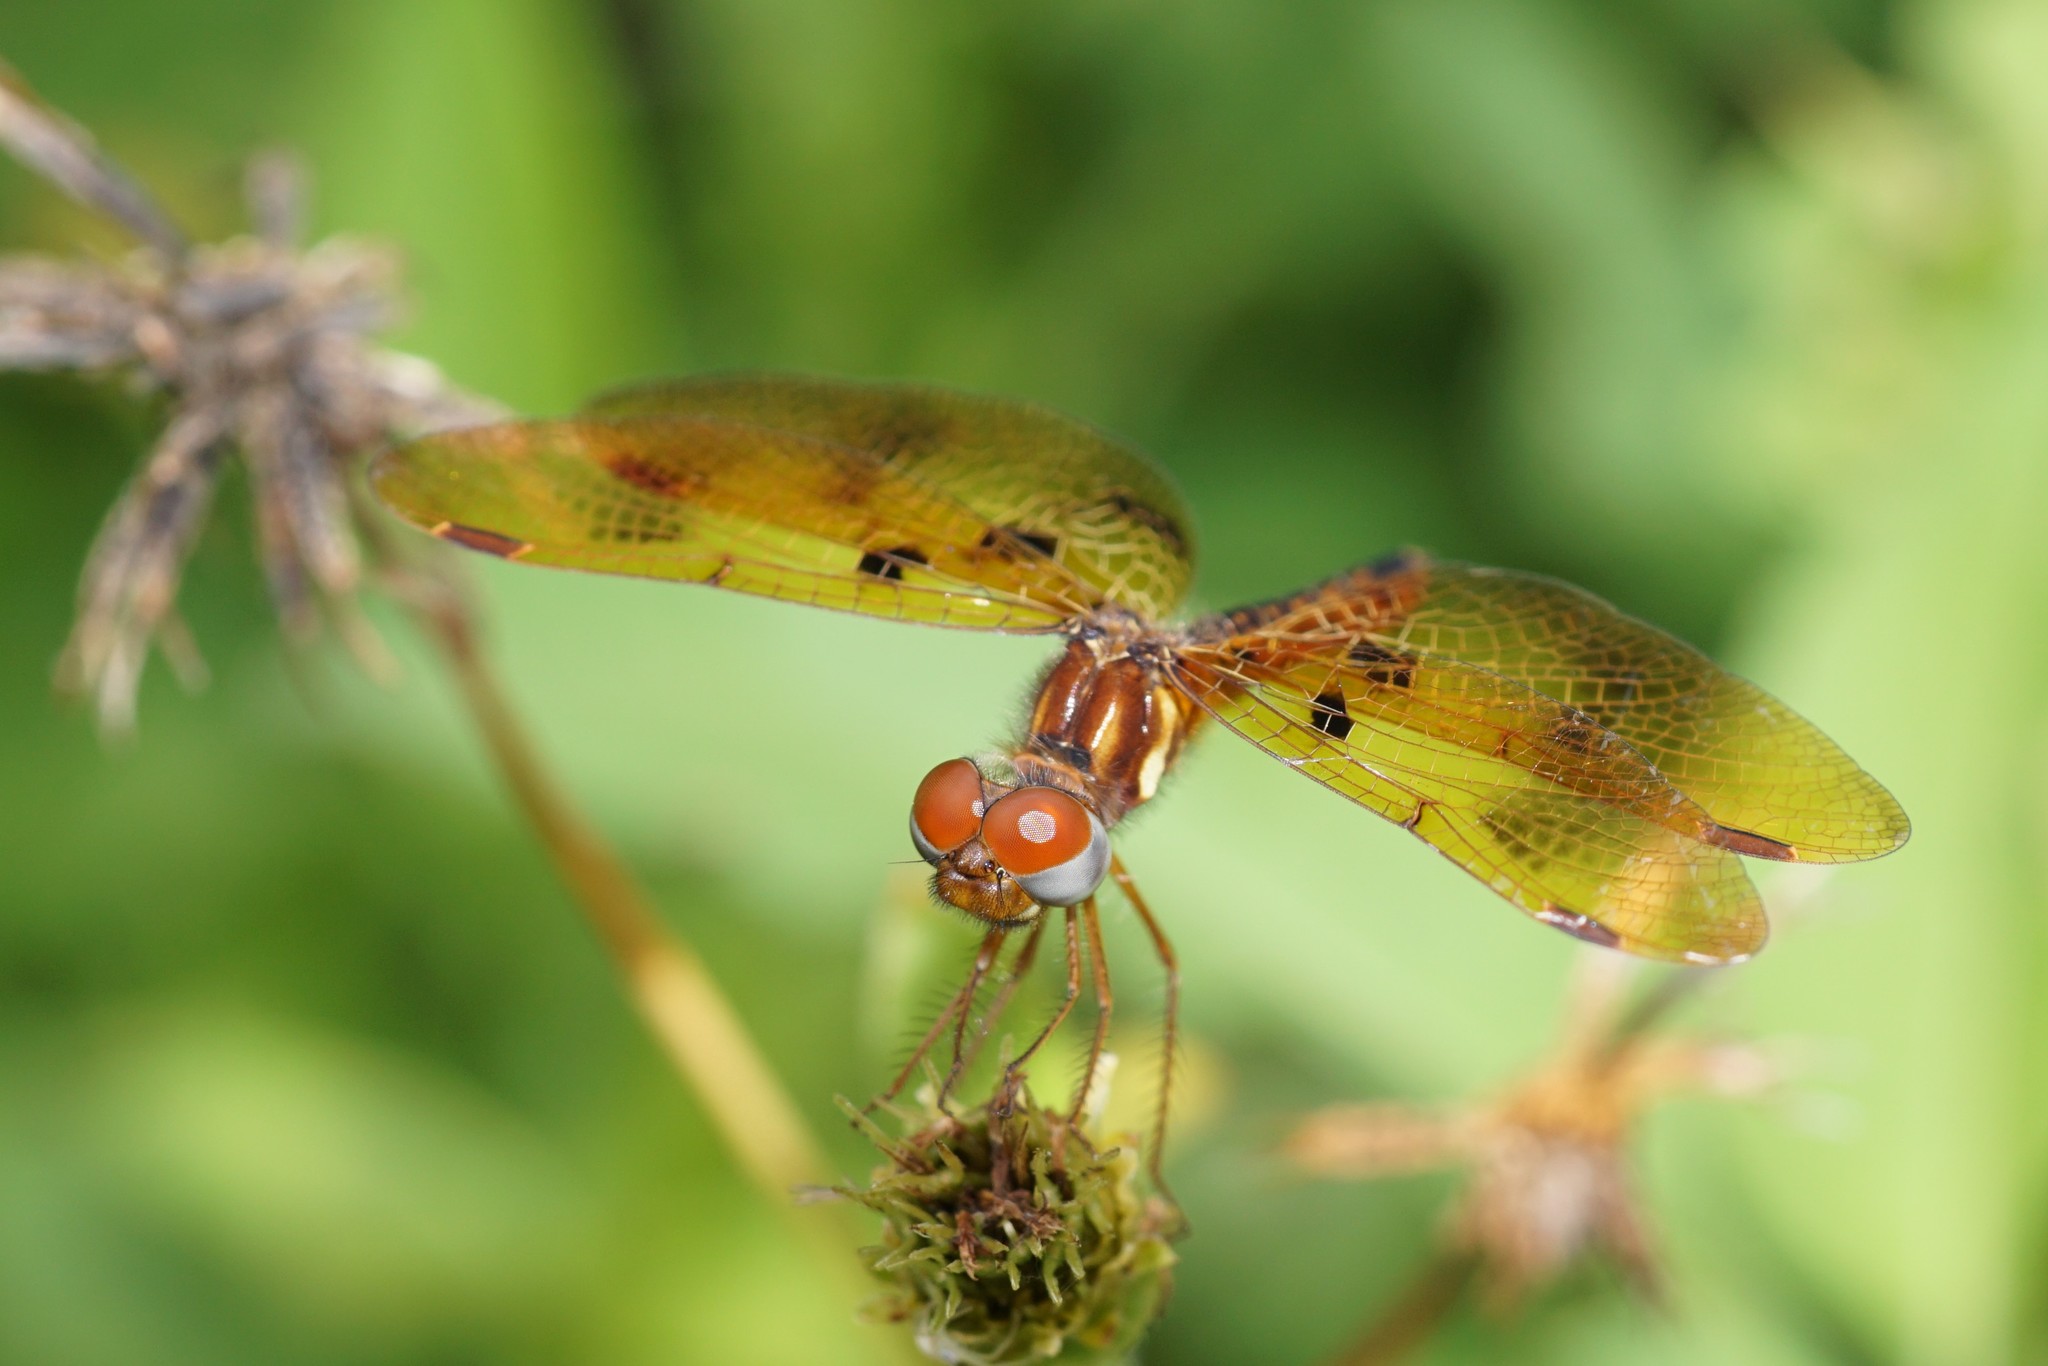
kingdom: Animalia
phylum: Arthropoda
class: Insecta
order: Odonata
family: Libellulidae
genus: Perithemis
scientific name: Perithemis tenera
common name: Eastern amberwing
